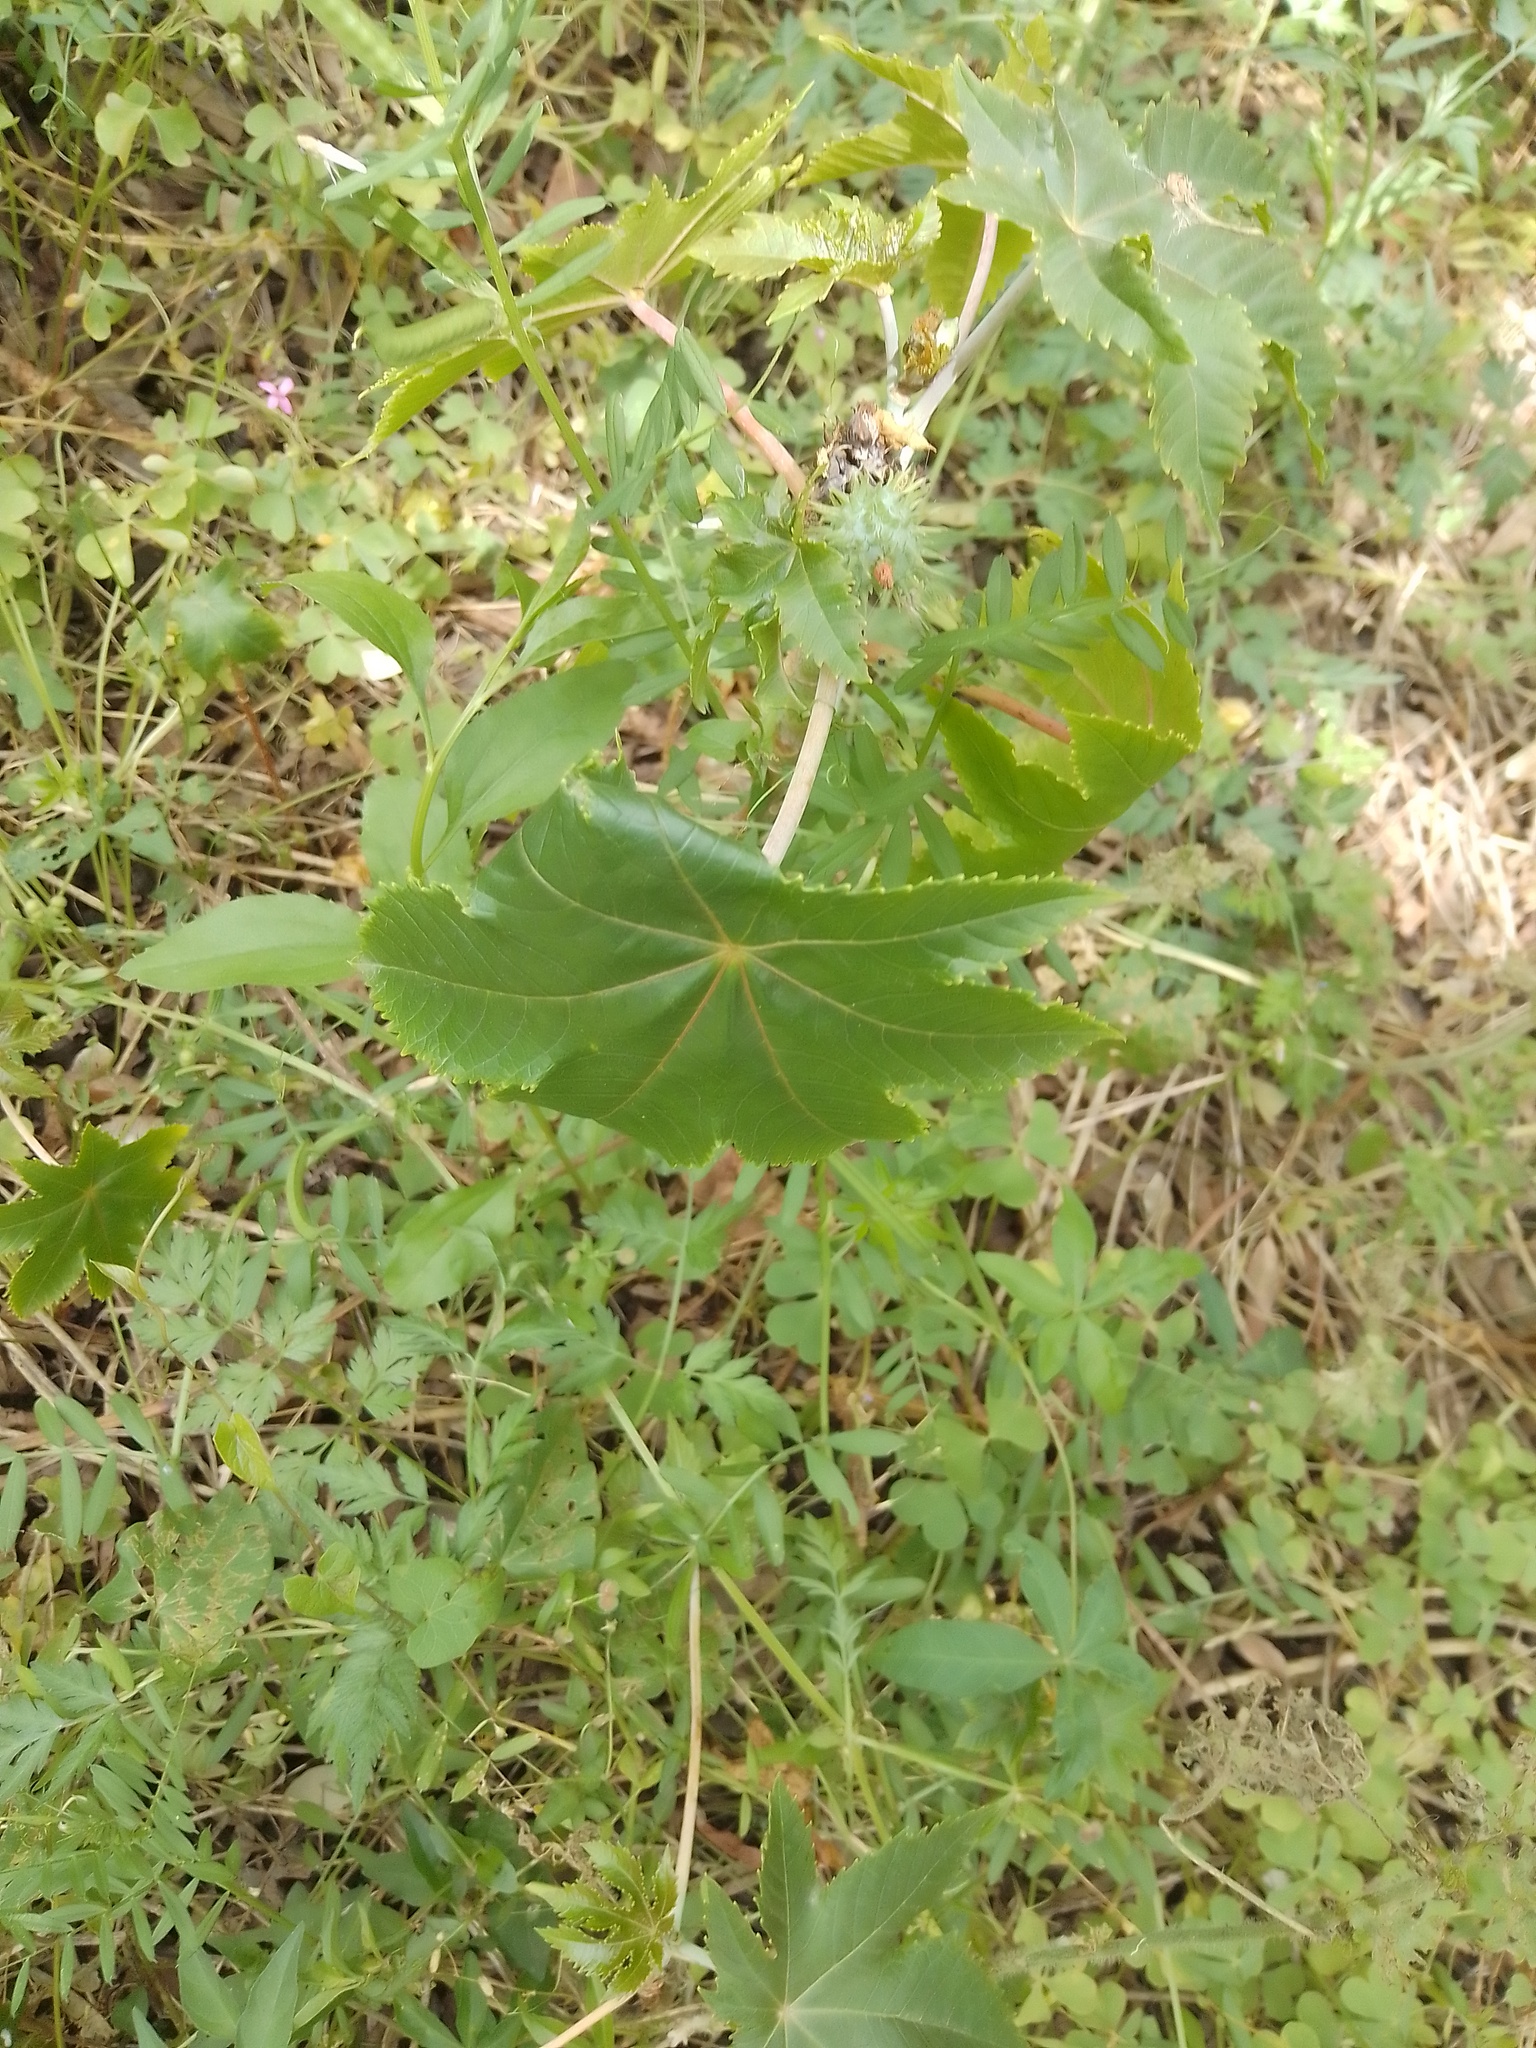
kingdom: Plantae
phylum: Tracheophyta
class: Magnoliopsida
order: Malpighiales
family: Euphorbiaceae
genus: Ricinus
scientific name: Ricinus communis
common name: Castor-oil-plant
